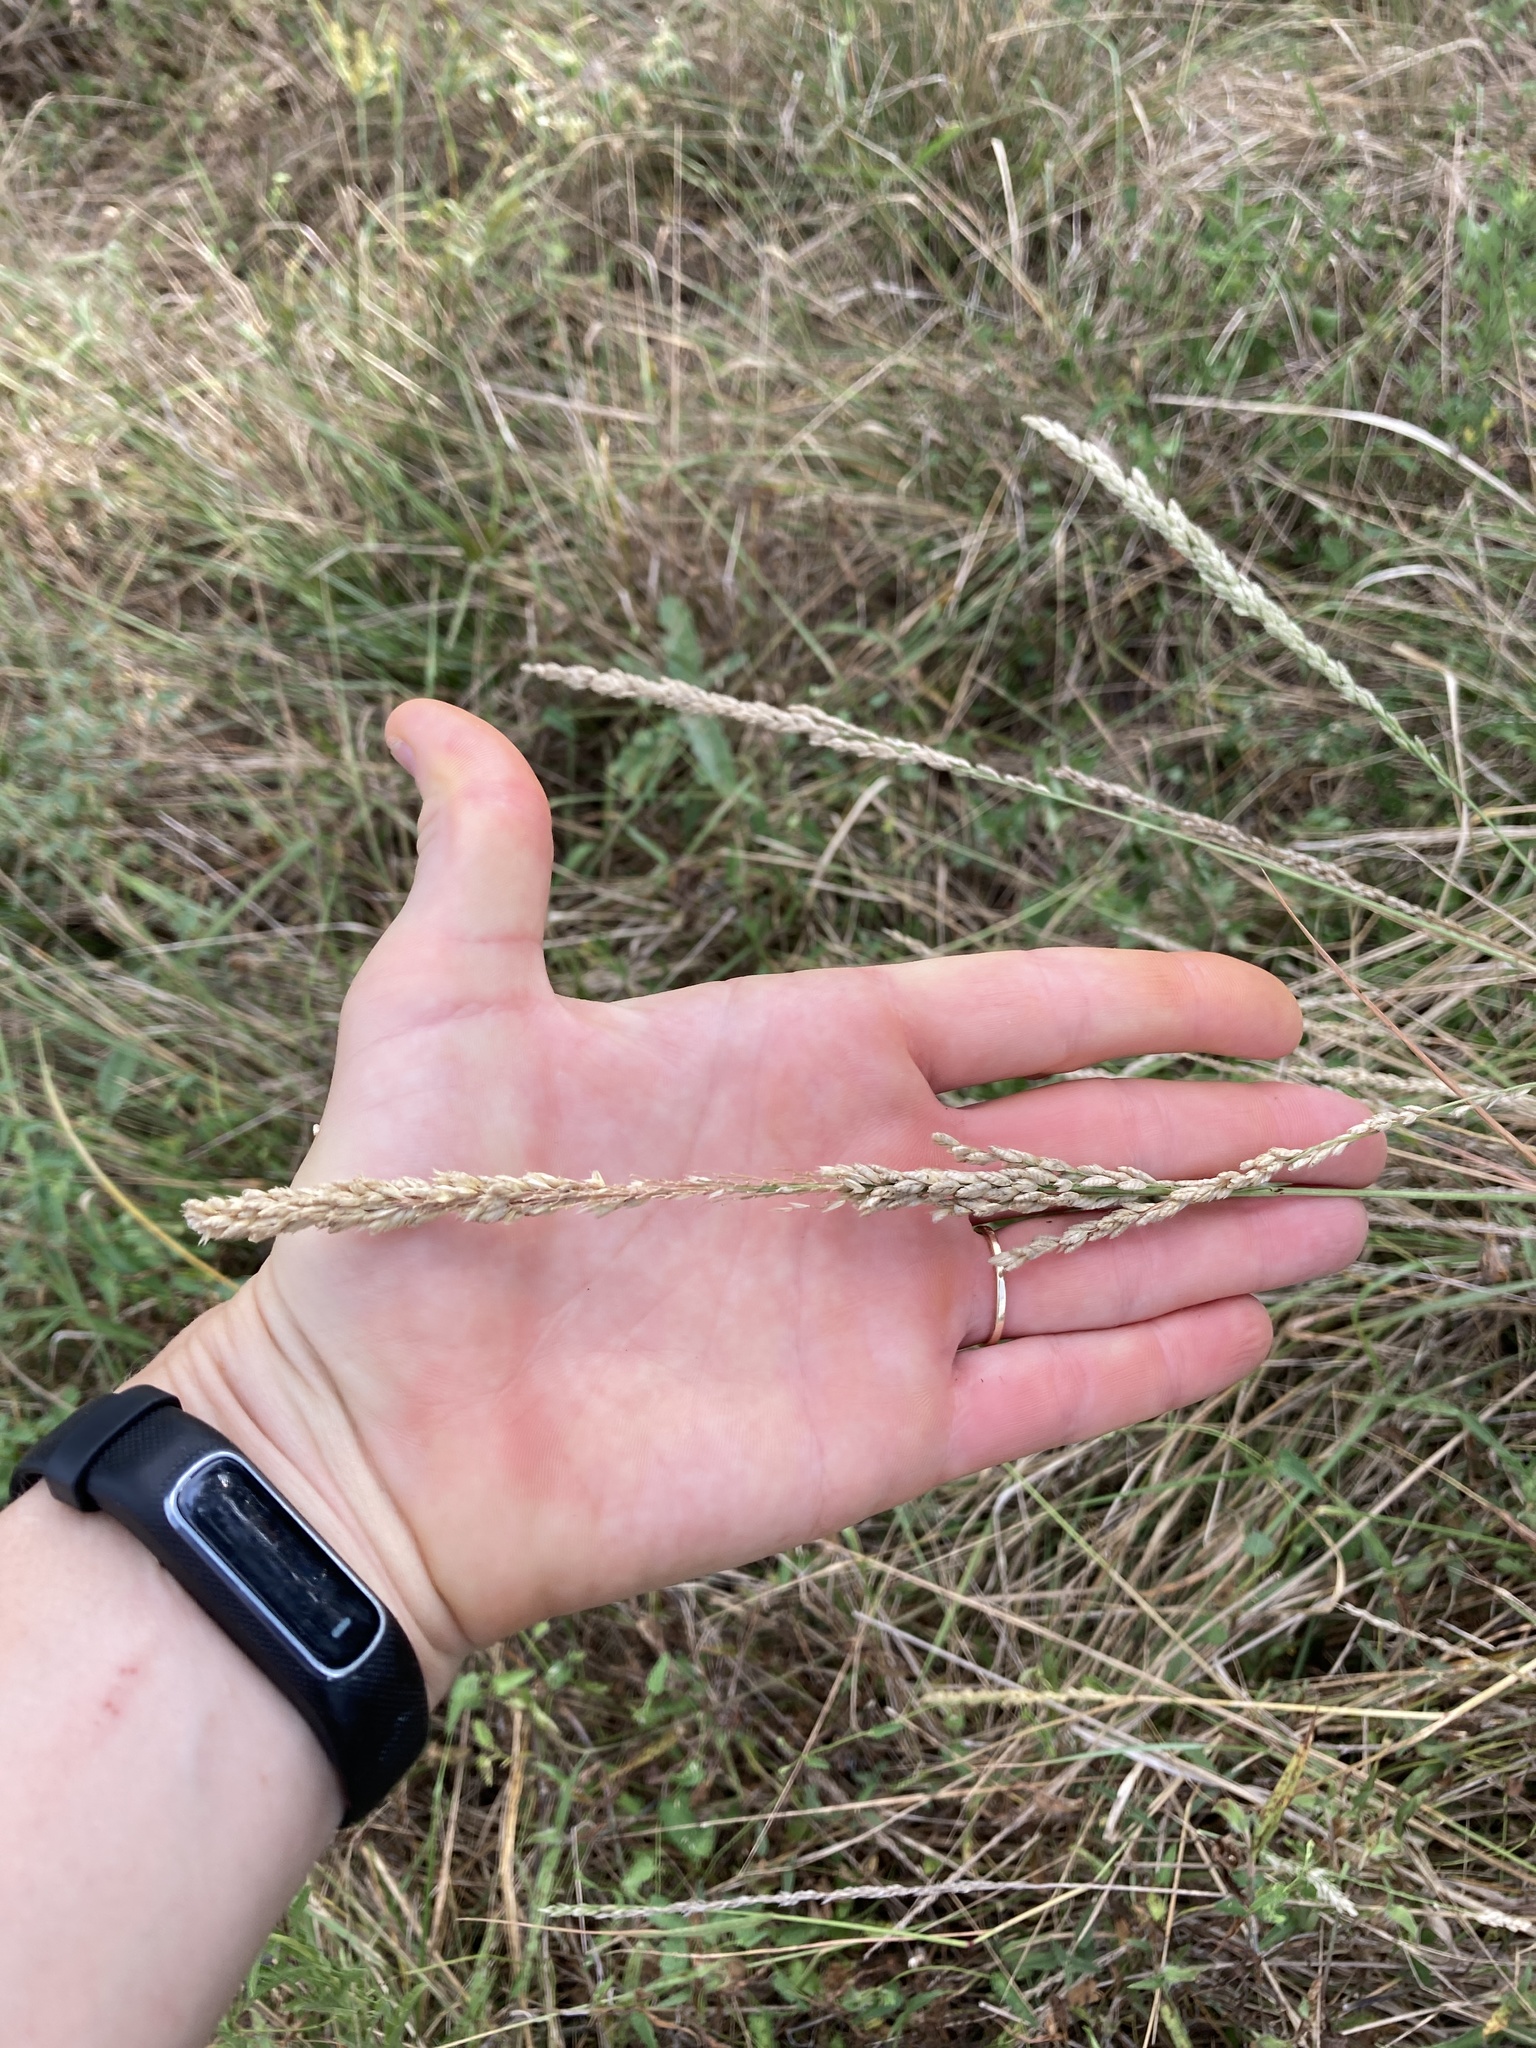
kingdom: Plantae
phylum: Tracheophyta
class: Liliopsida
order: Poales
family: Poaceae
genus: Tridens
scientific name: Tridens albescens
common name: White tridens
